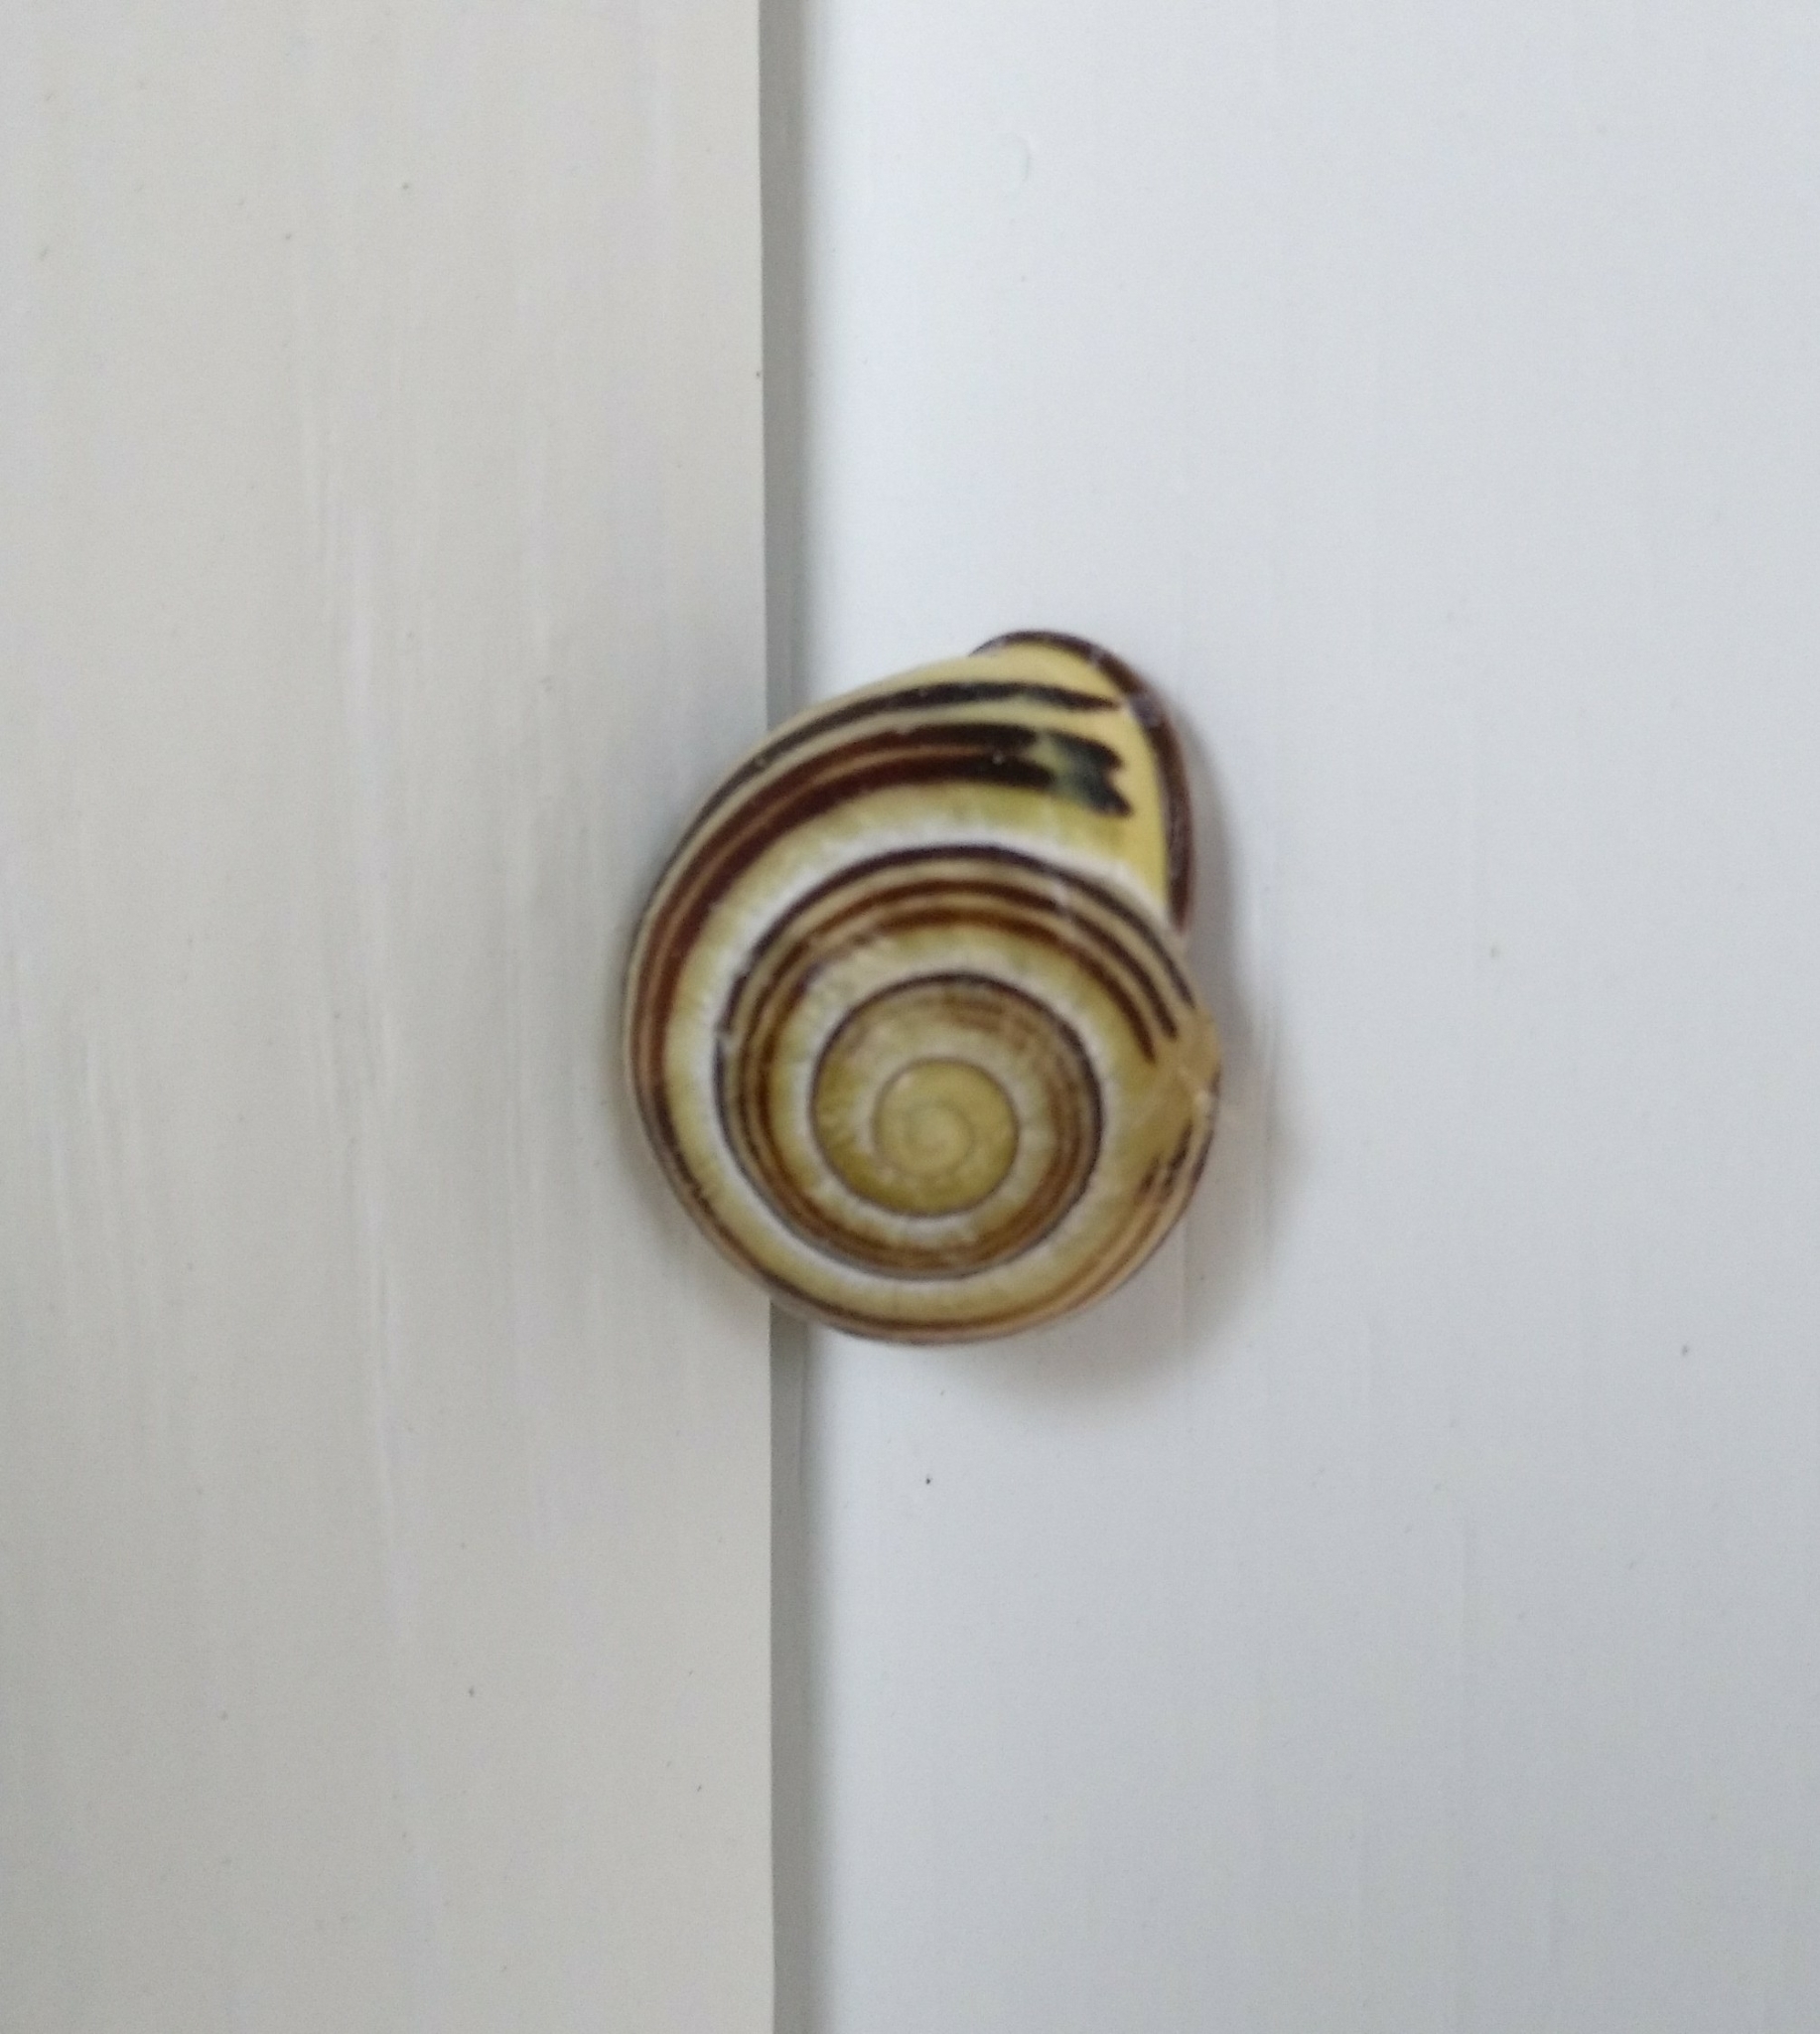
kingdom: Animalia
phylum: Mollusca
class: Gastropoda
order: Stylommatophora
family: Helicidae
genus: Cepaea
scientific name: Cepaea nemoralis
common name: Grovesnail
